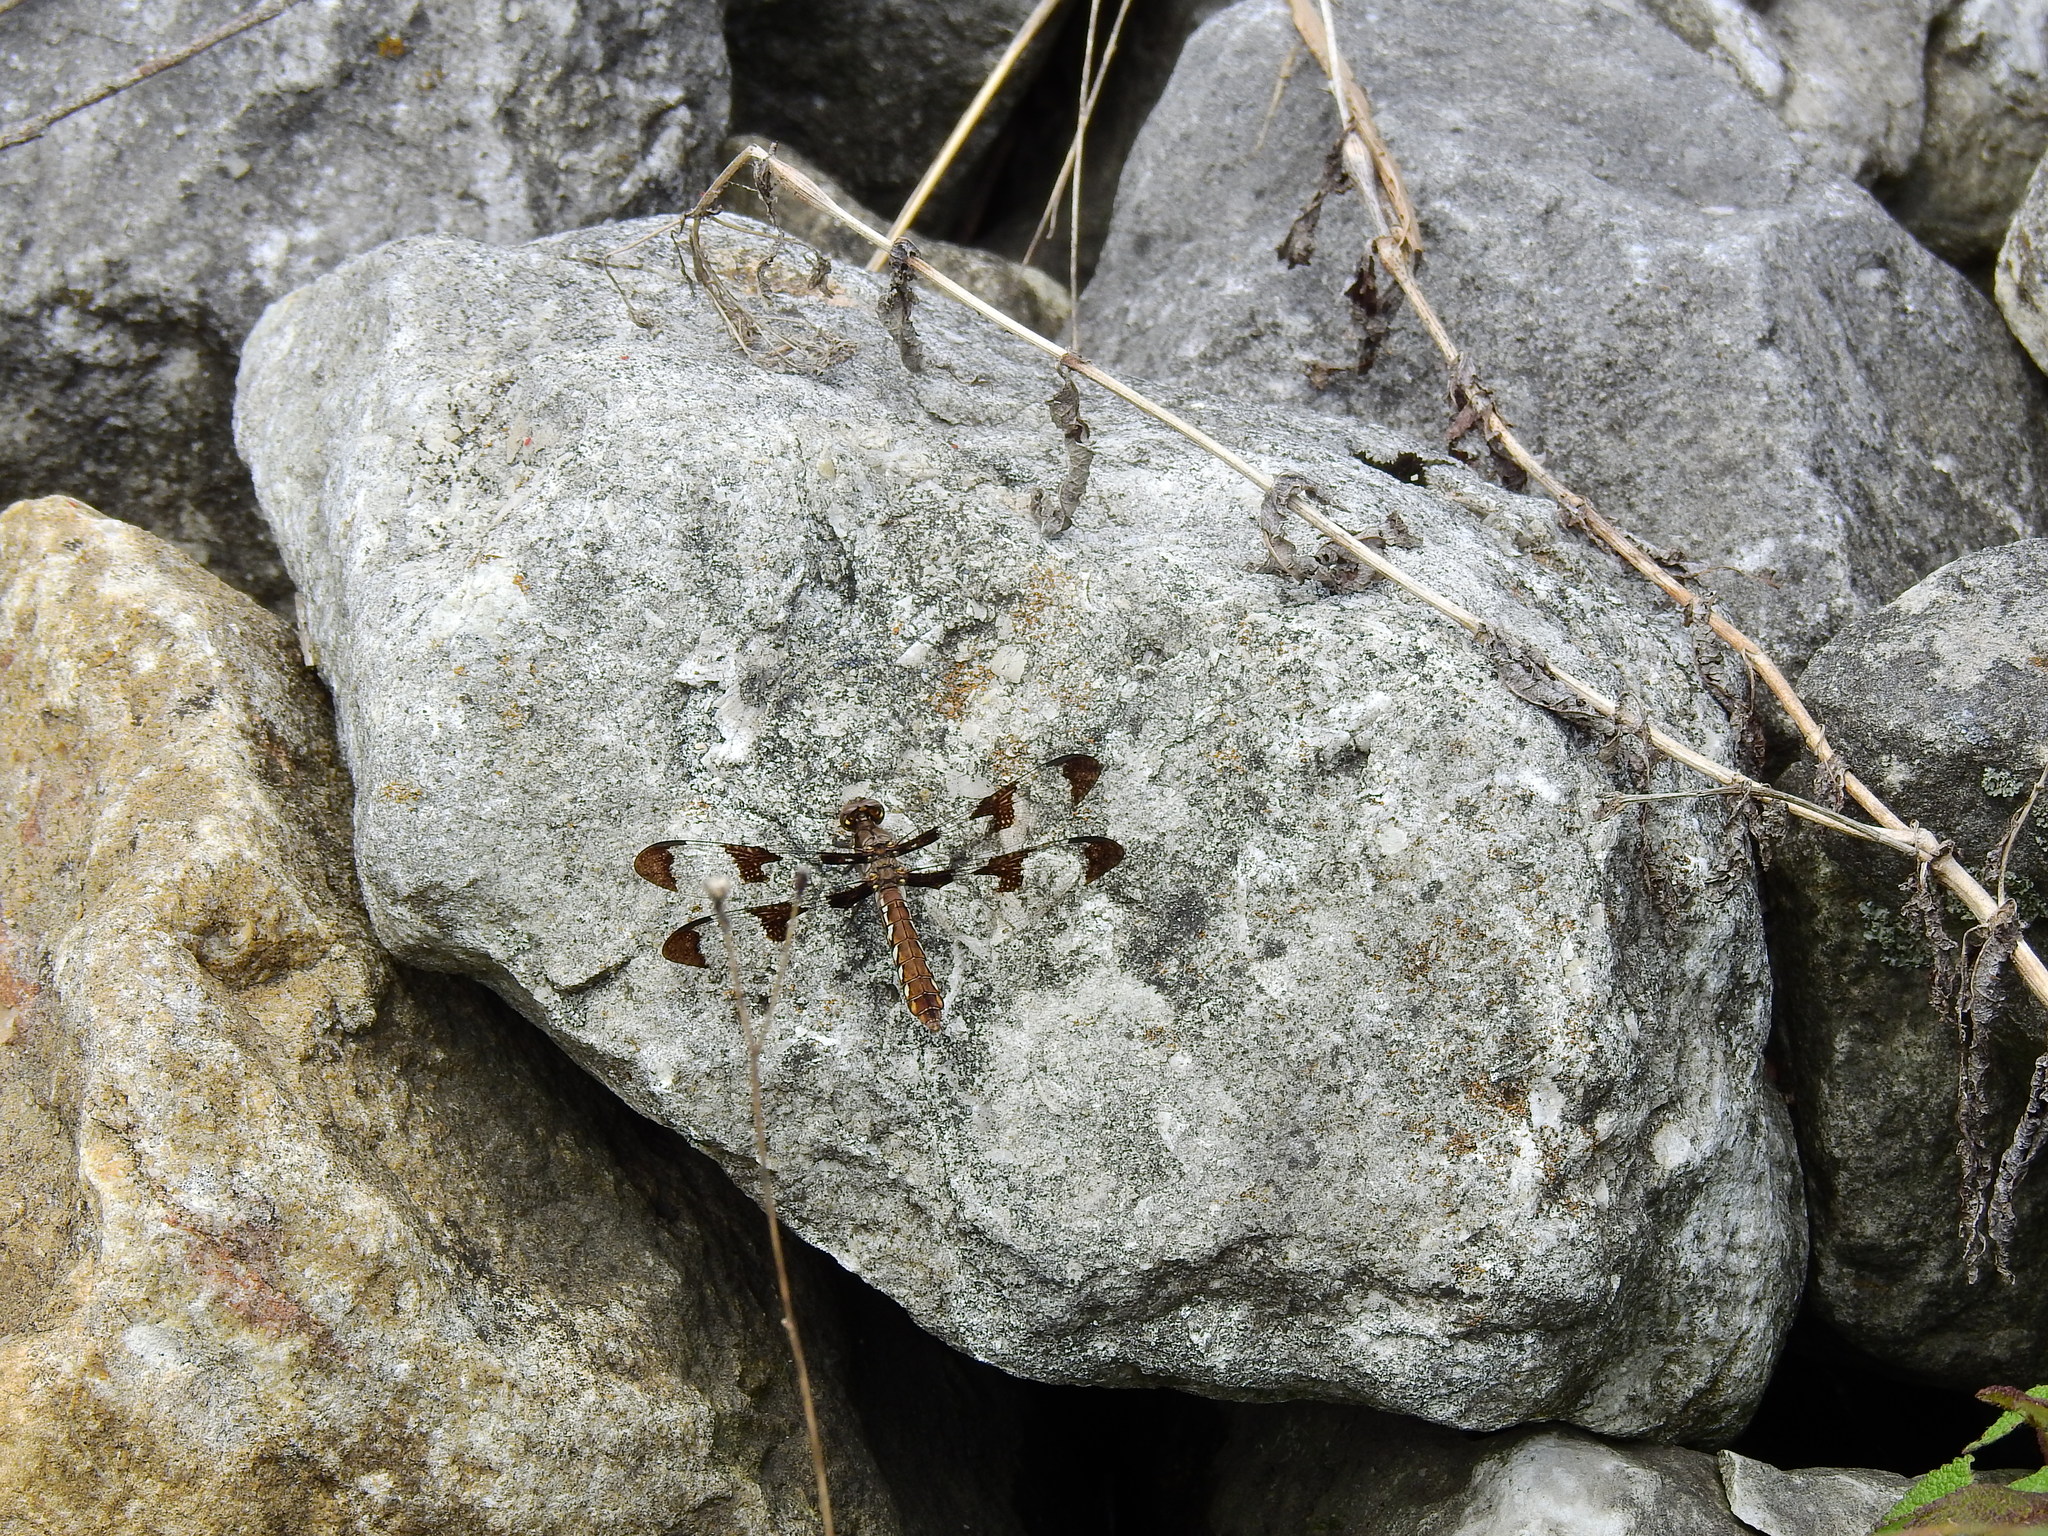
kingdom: Animalia
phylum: Arthropoda
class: Insecta
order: Odonata
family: Libellulidae
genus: Plathemis
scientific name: Plathemis lydia
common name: Common whitetail
